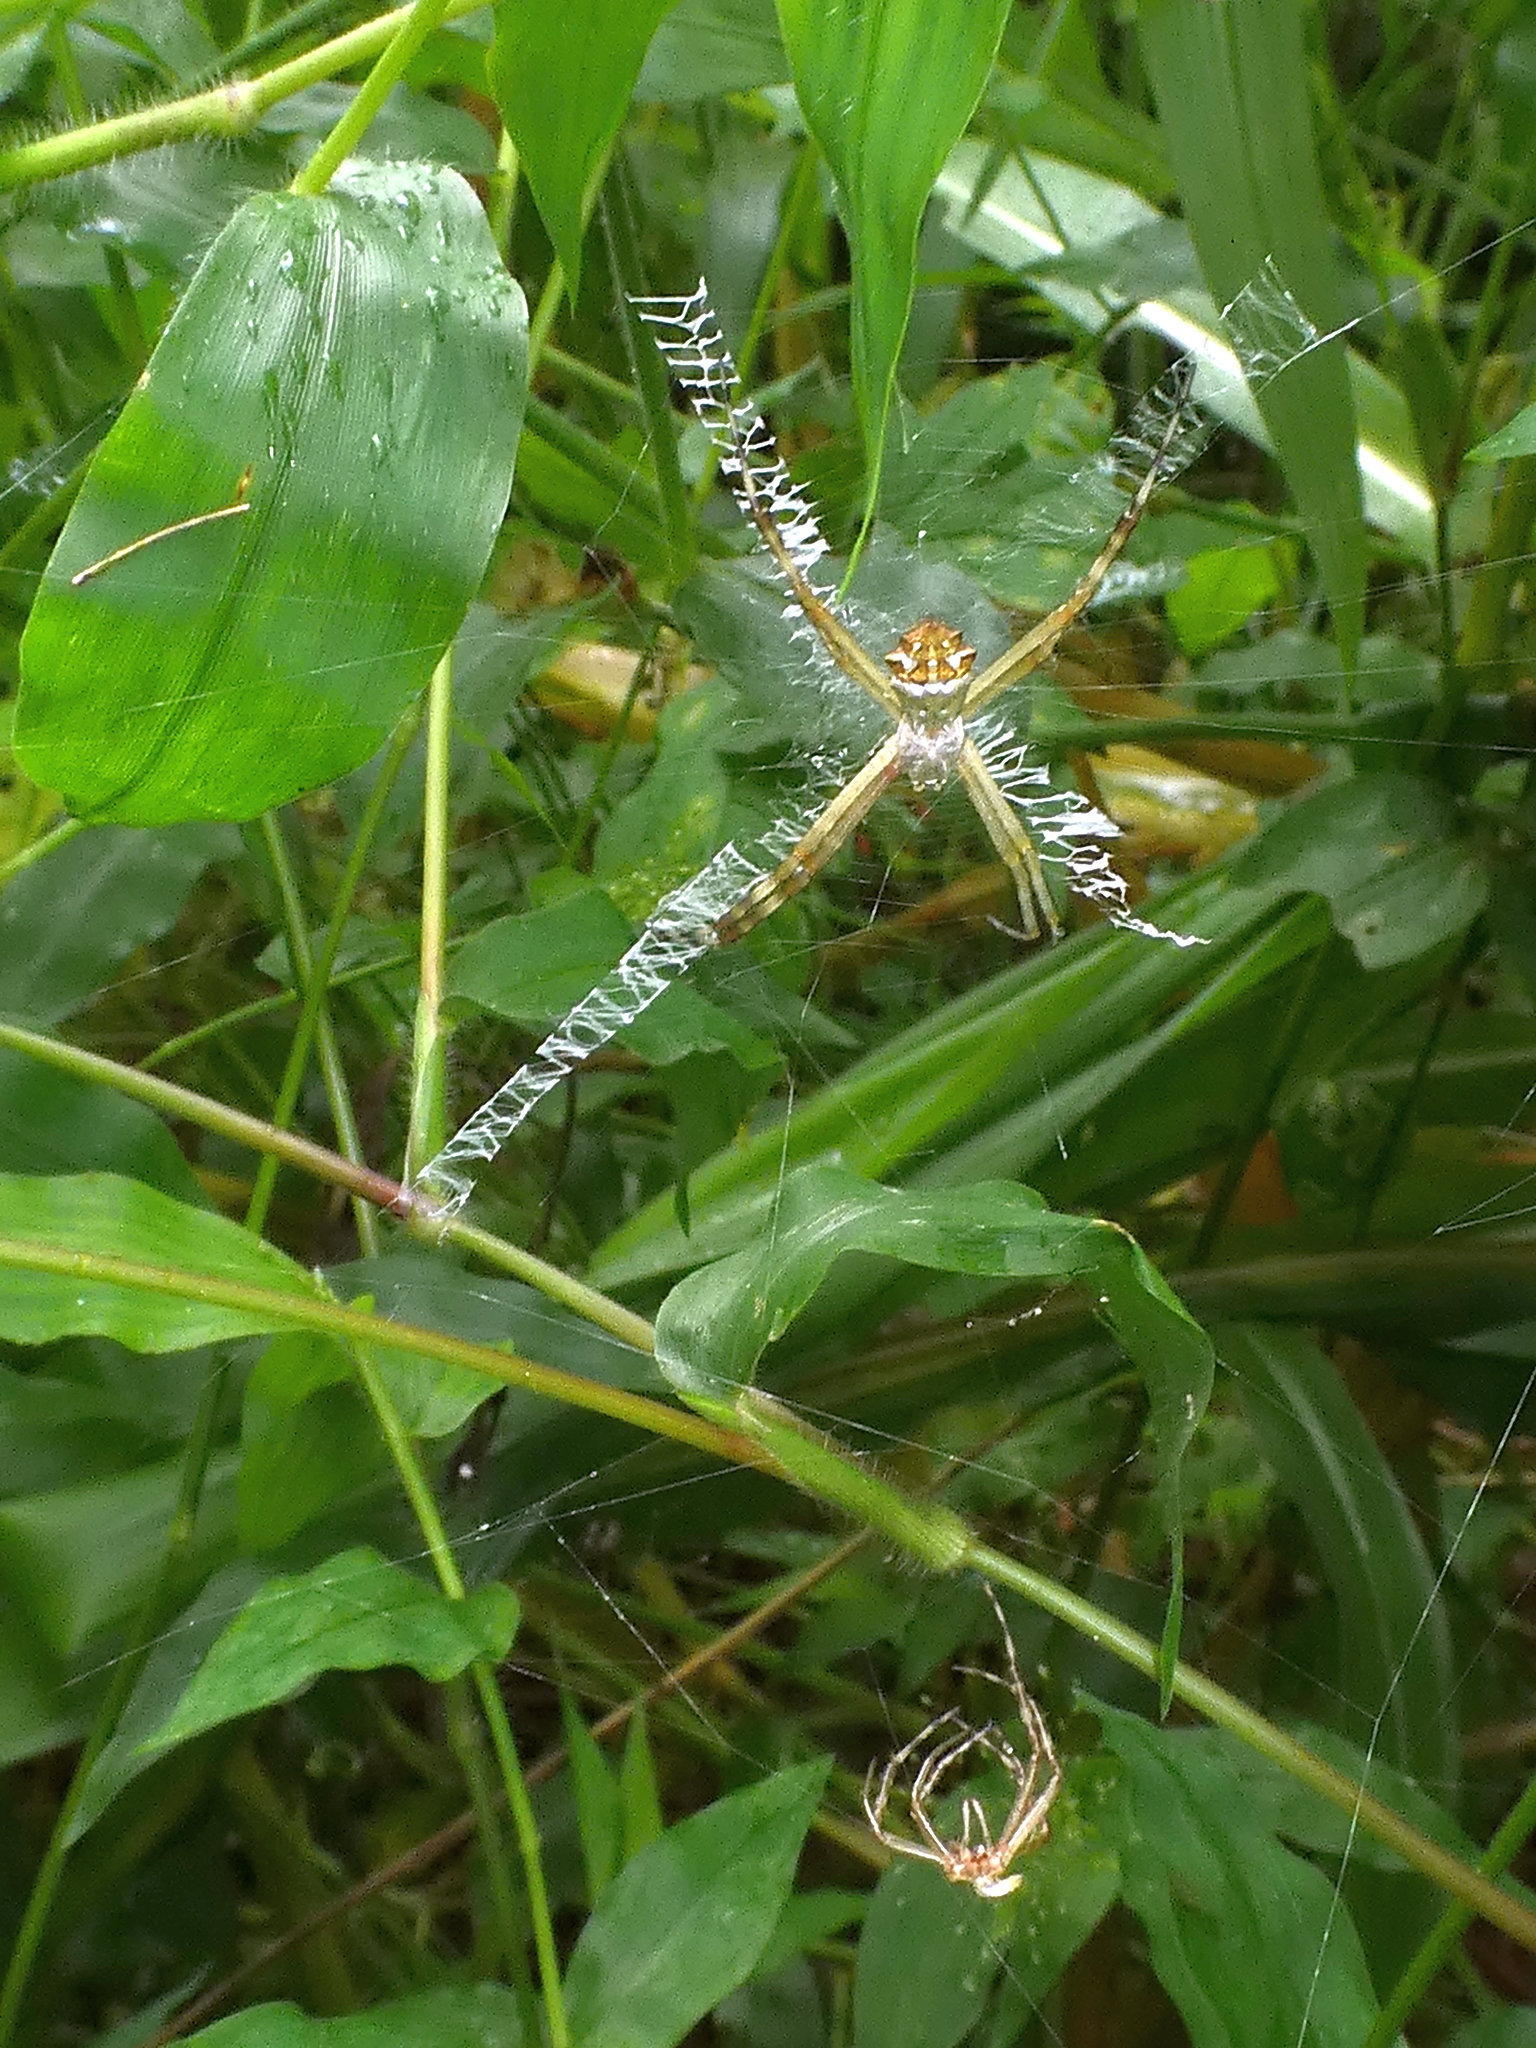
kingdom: Animalia
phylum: Arthropoda
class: Arachnida
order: Araneae
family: Araneidae
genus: Argiope
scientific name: Argiope argentata
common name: Orb weavers
